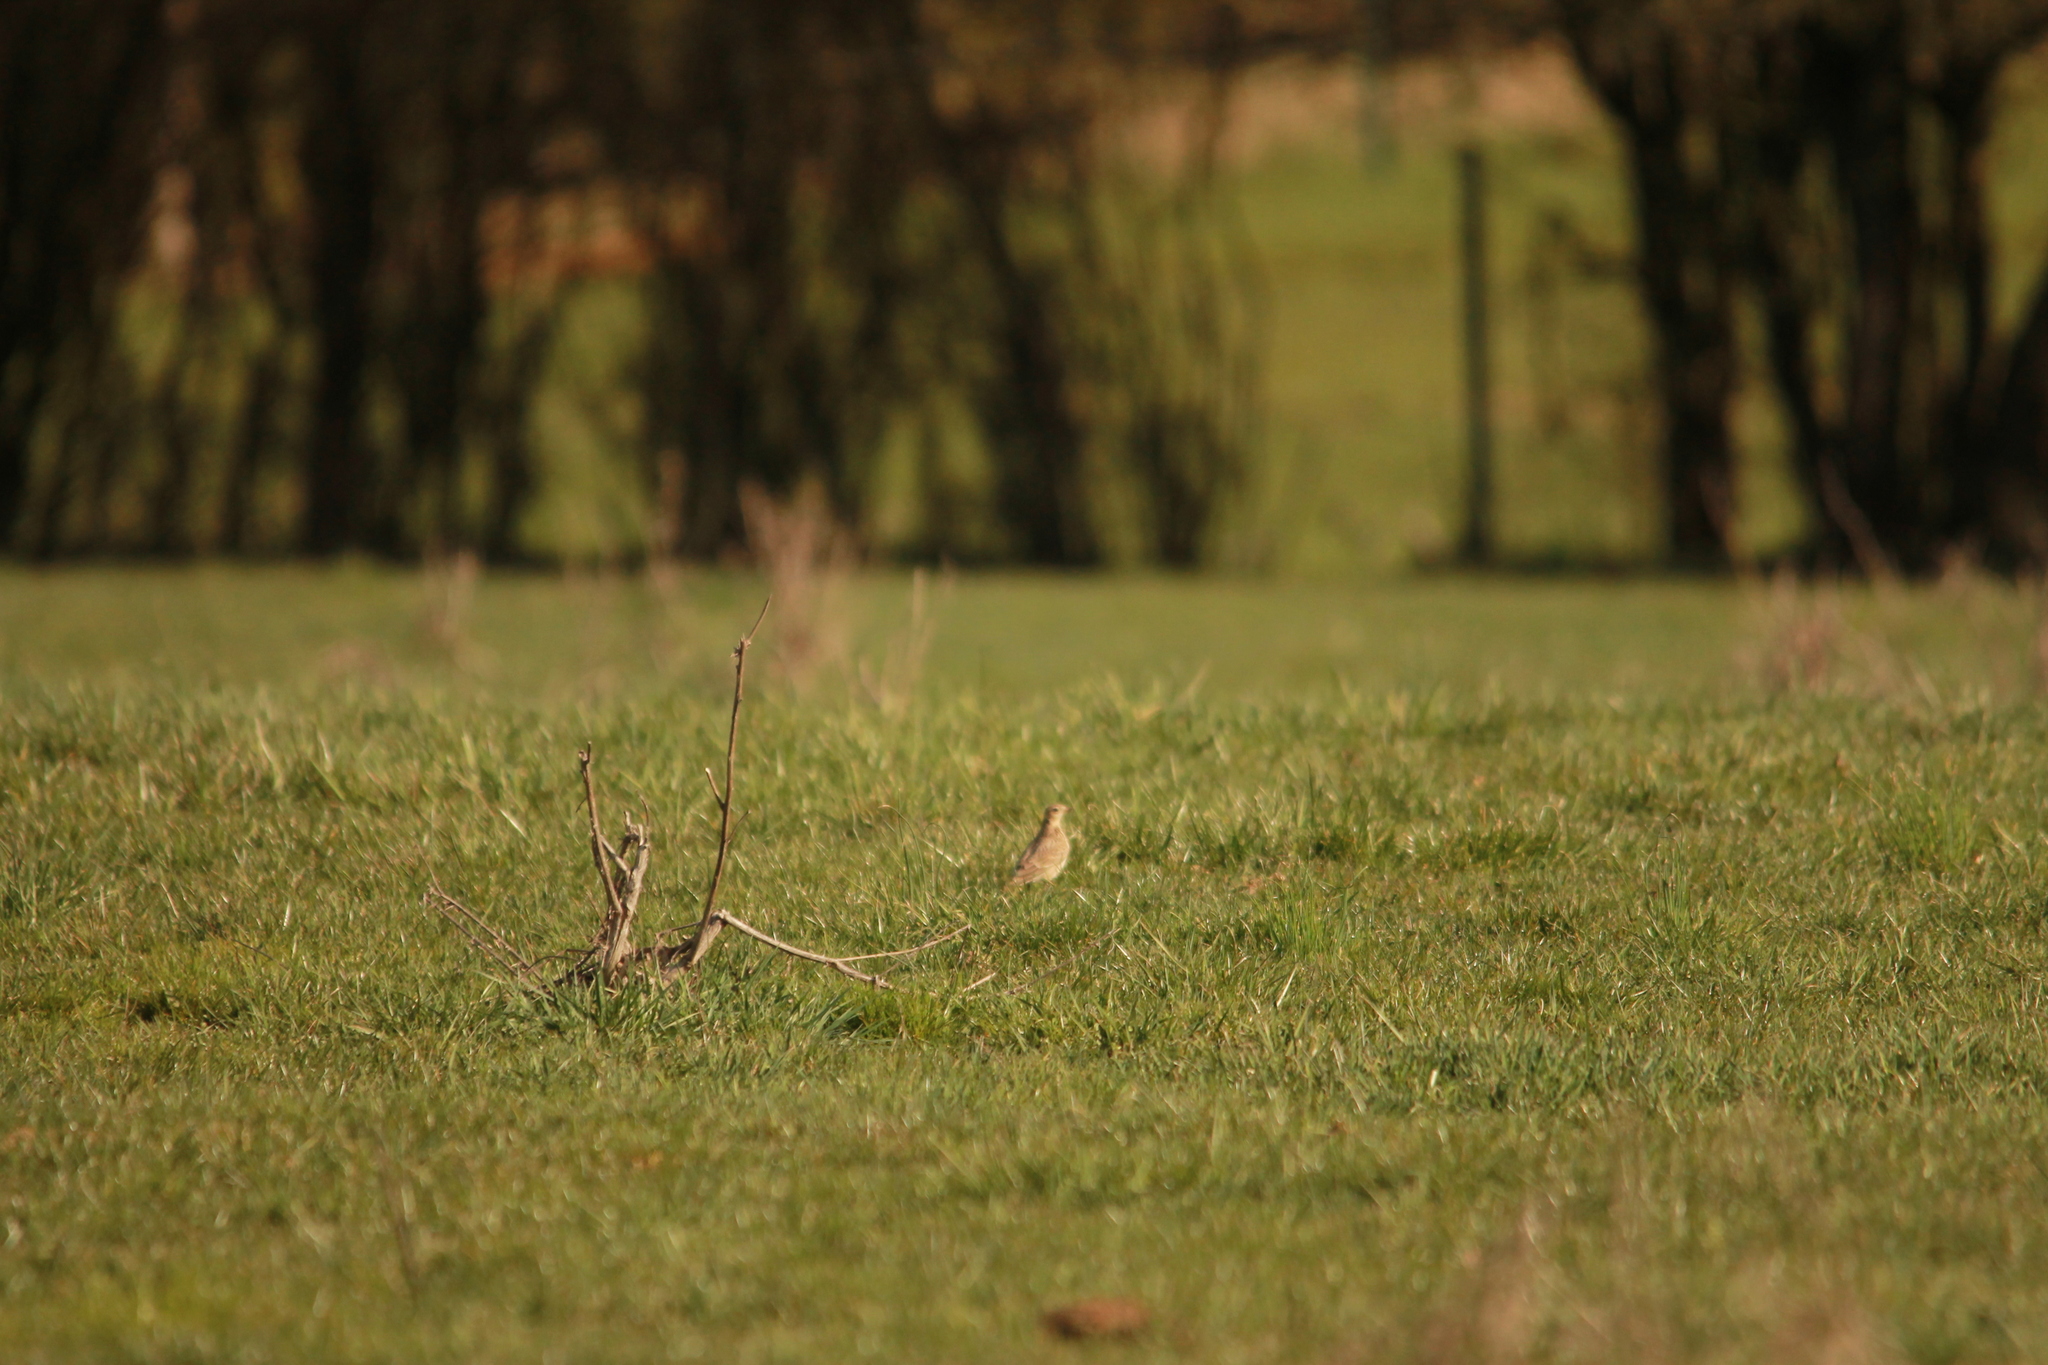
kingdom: Animalia
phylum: Chordata
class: Aves
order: Passeriformes
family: Alaudidae
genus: Alauda
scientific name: Alauda arvensis
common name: Eurasian skylark
